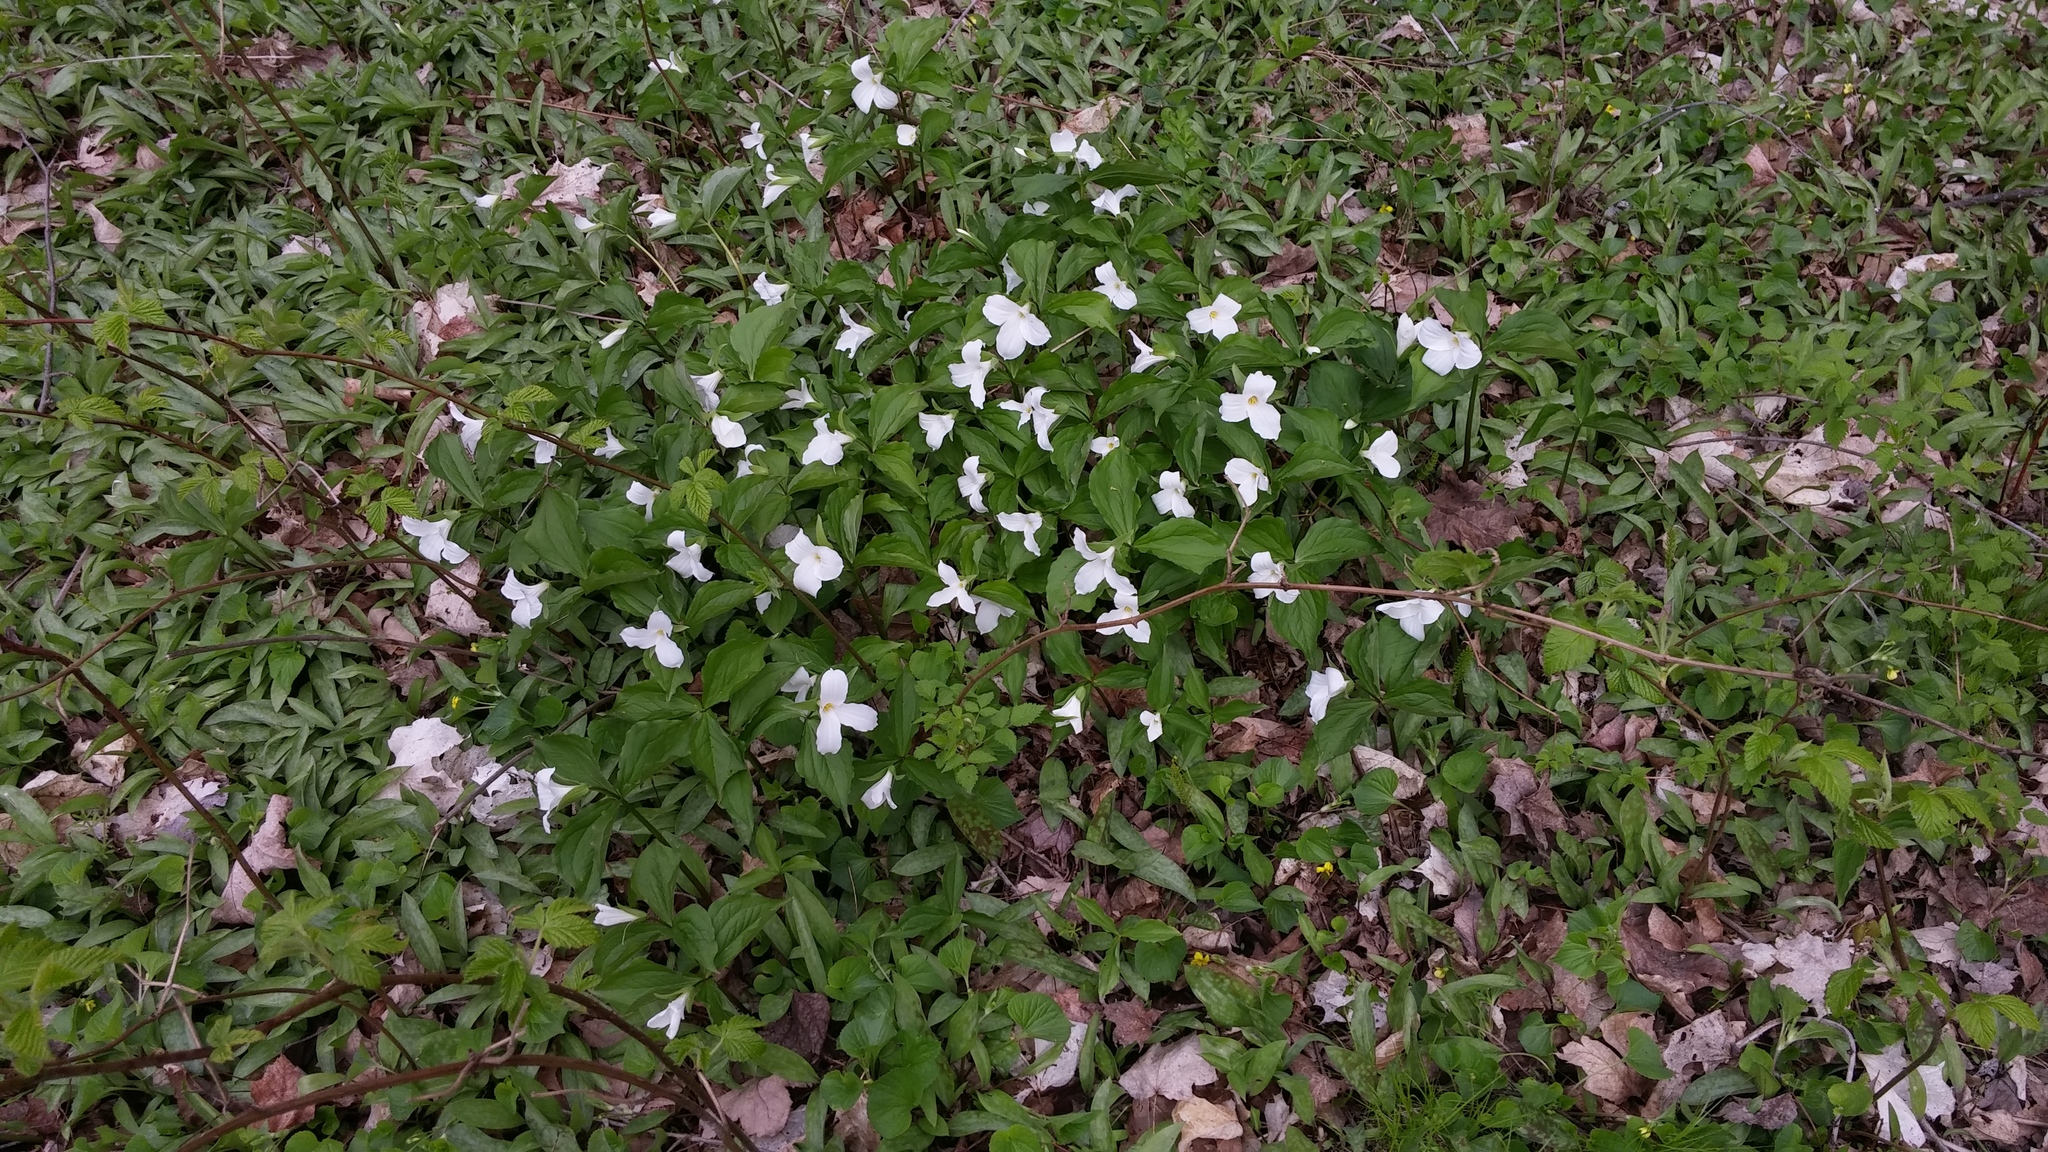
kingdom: Plantae
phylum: Tracheophyta
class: Liliopsida
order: Liliales
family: Melanthiaceae
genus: Trillium
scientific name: Trillium grandiflorum
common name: Great white trillium
